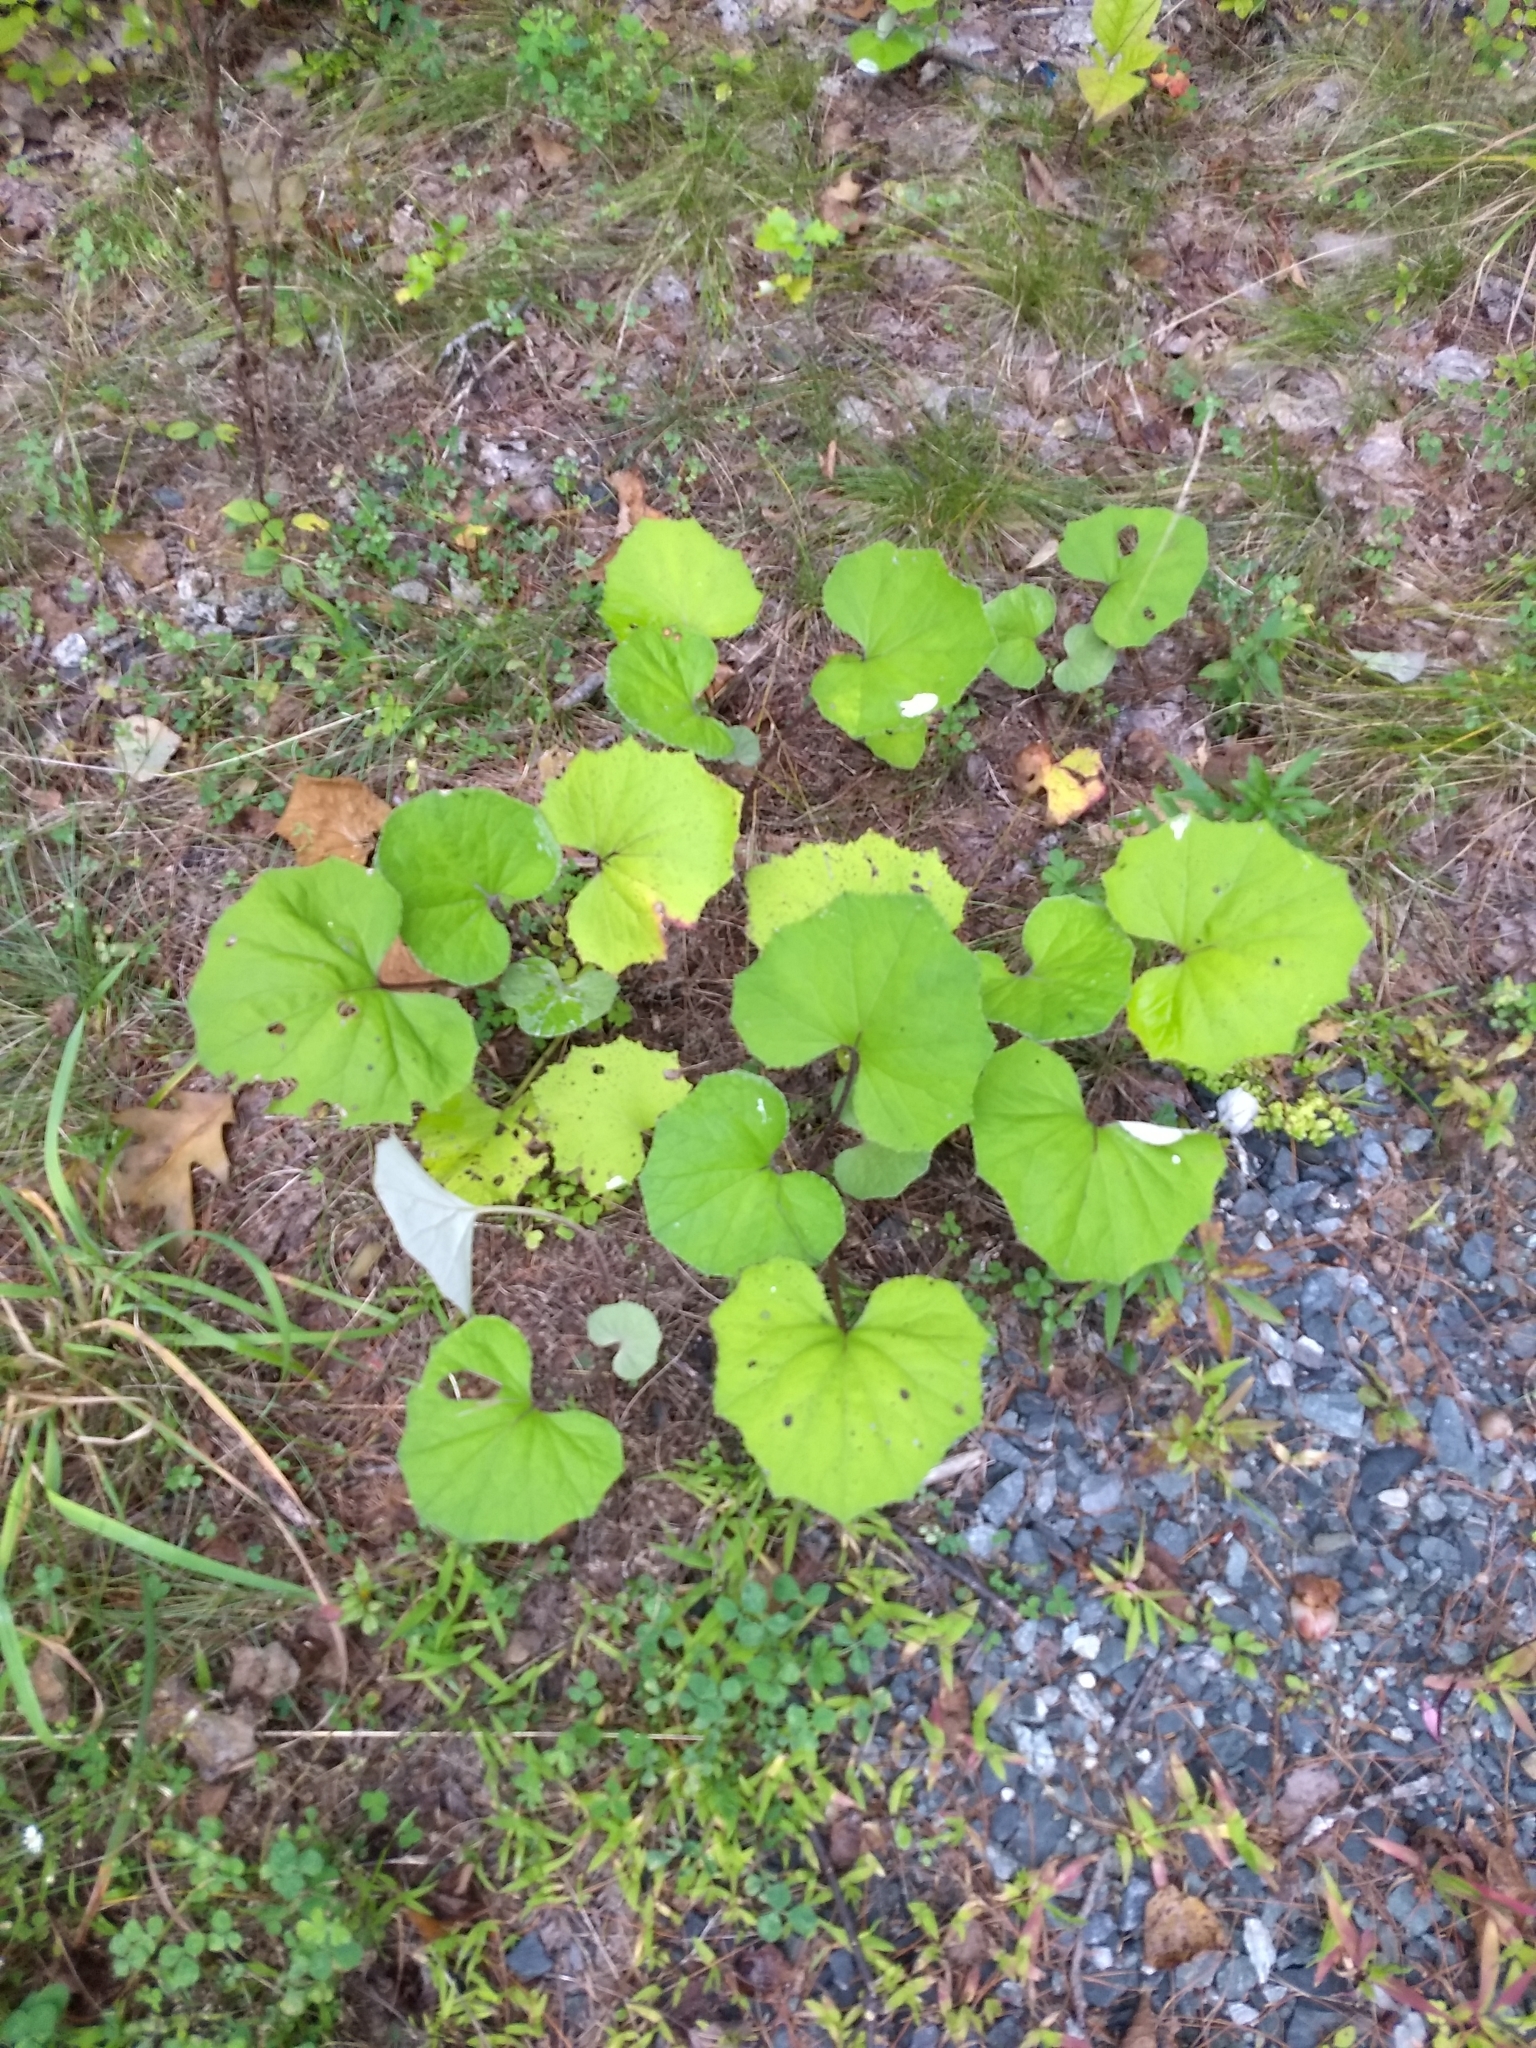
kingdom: Plantae
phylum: Tracheophyta
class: Magnoliopsida
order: Asterales
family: Asteraceae
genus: Tussilago
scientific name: Tussilago farfara
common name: Coltsfoot
